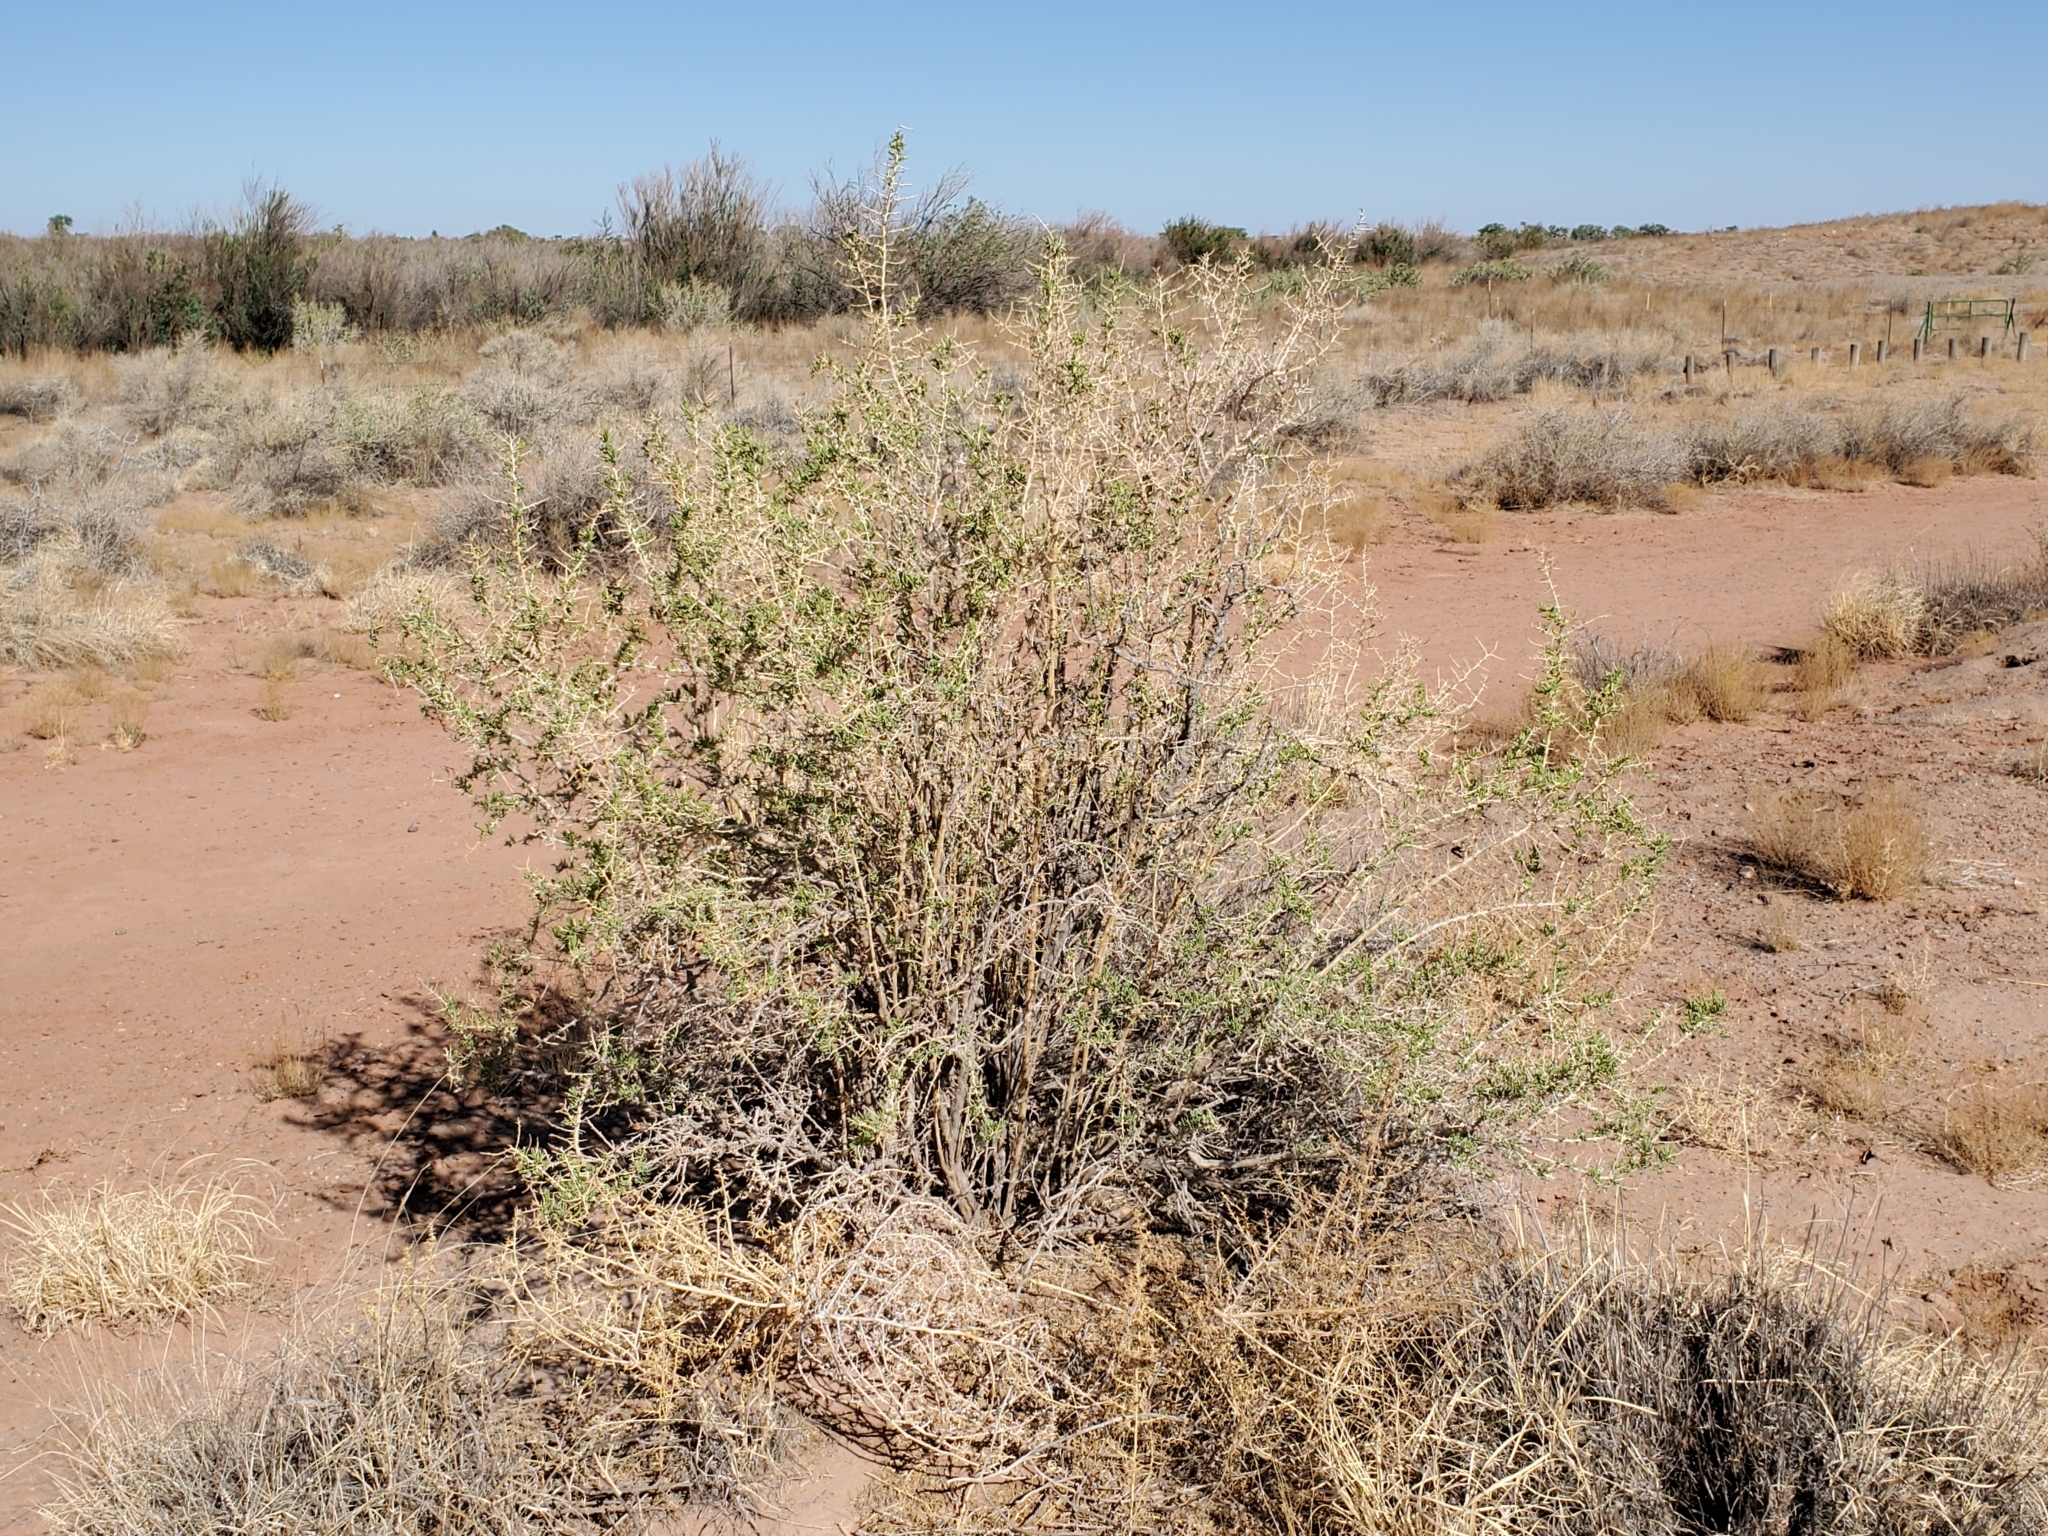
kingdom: Plantae
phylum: Tracheophyta
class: Magnoliopsida
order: Caryophyllales
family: Sarcobataceae
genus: Sarcobatus
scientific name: Sarcobatus vermiculatus
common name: Greasewood
